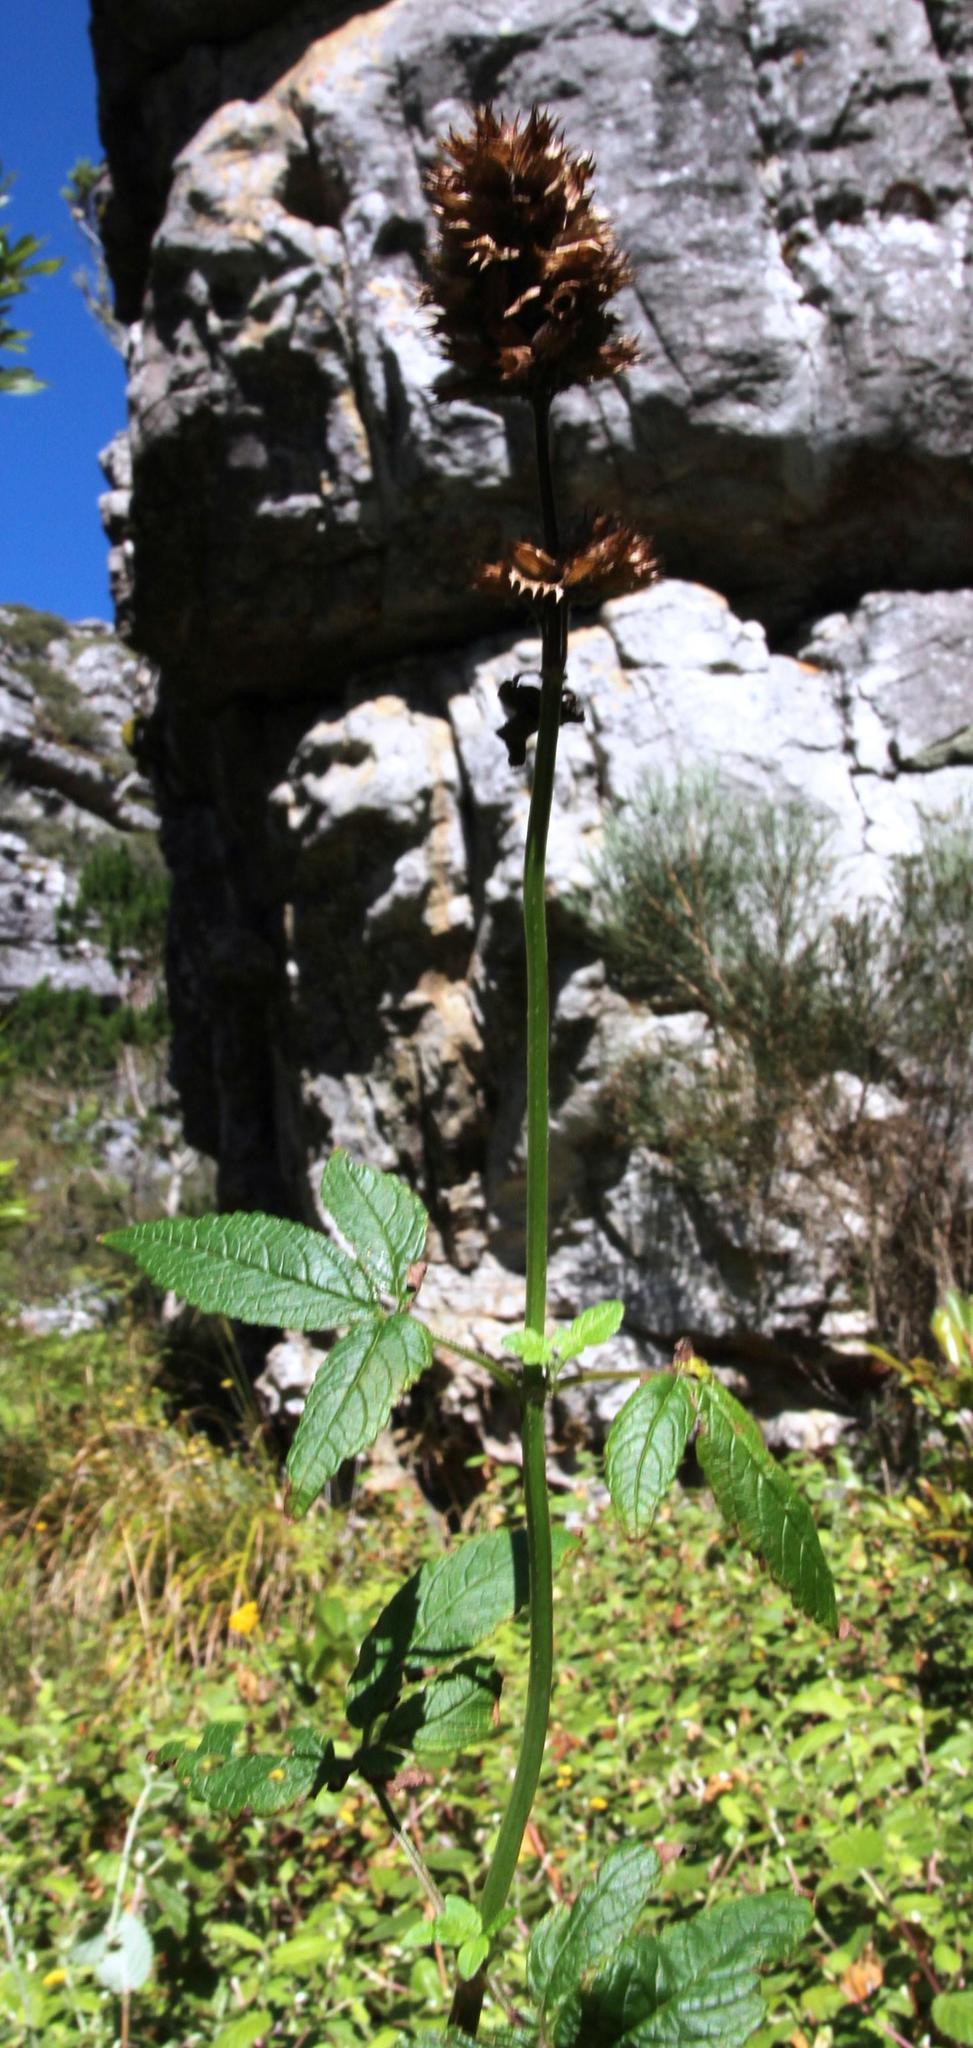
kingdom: Plantae
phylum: Tracheophyta
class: Magnoliopsida
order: Lamiales
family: Lamiaceae
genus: Cedronella
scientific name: Cedronella canariensis
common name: Canary islands balm
